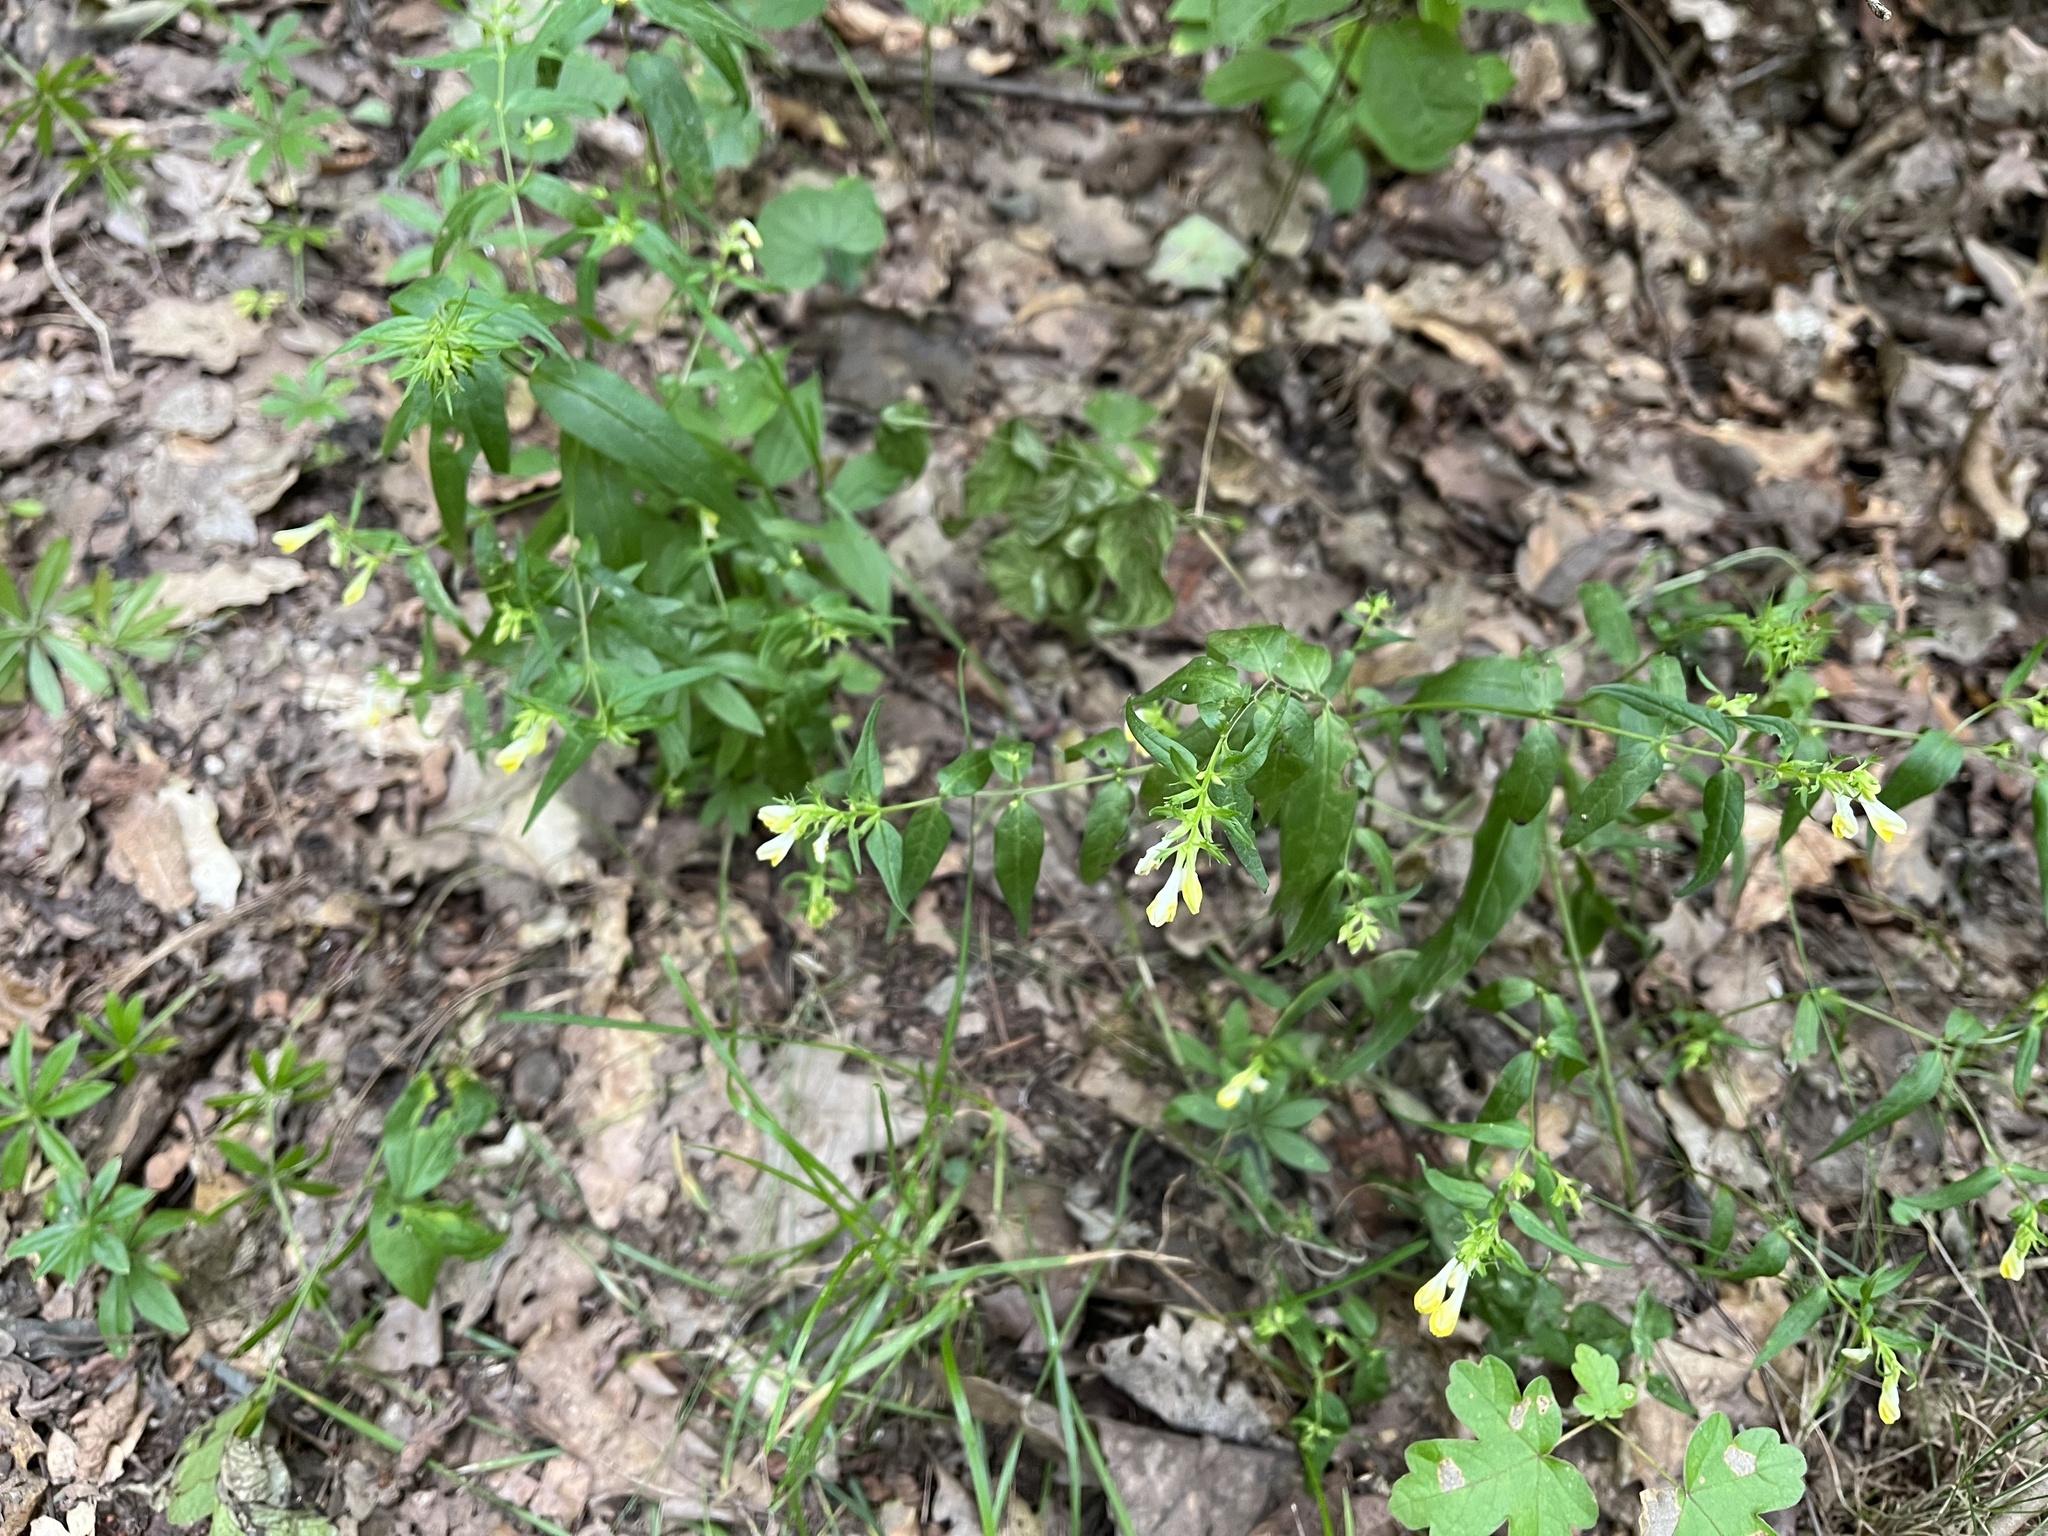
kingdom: Plantae
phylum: Tracheophyta
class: Magnoliopsida
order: Lamiales
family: Orobanchaceae
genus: Melampyrum
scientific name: Melampyrum pratense
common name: Common cow-wheat
